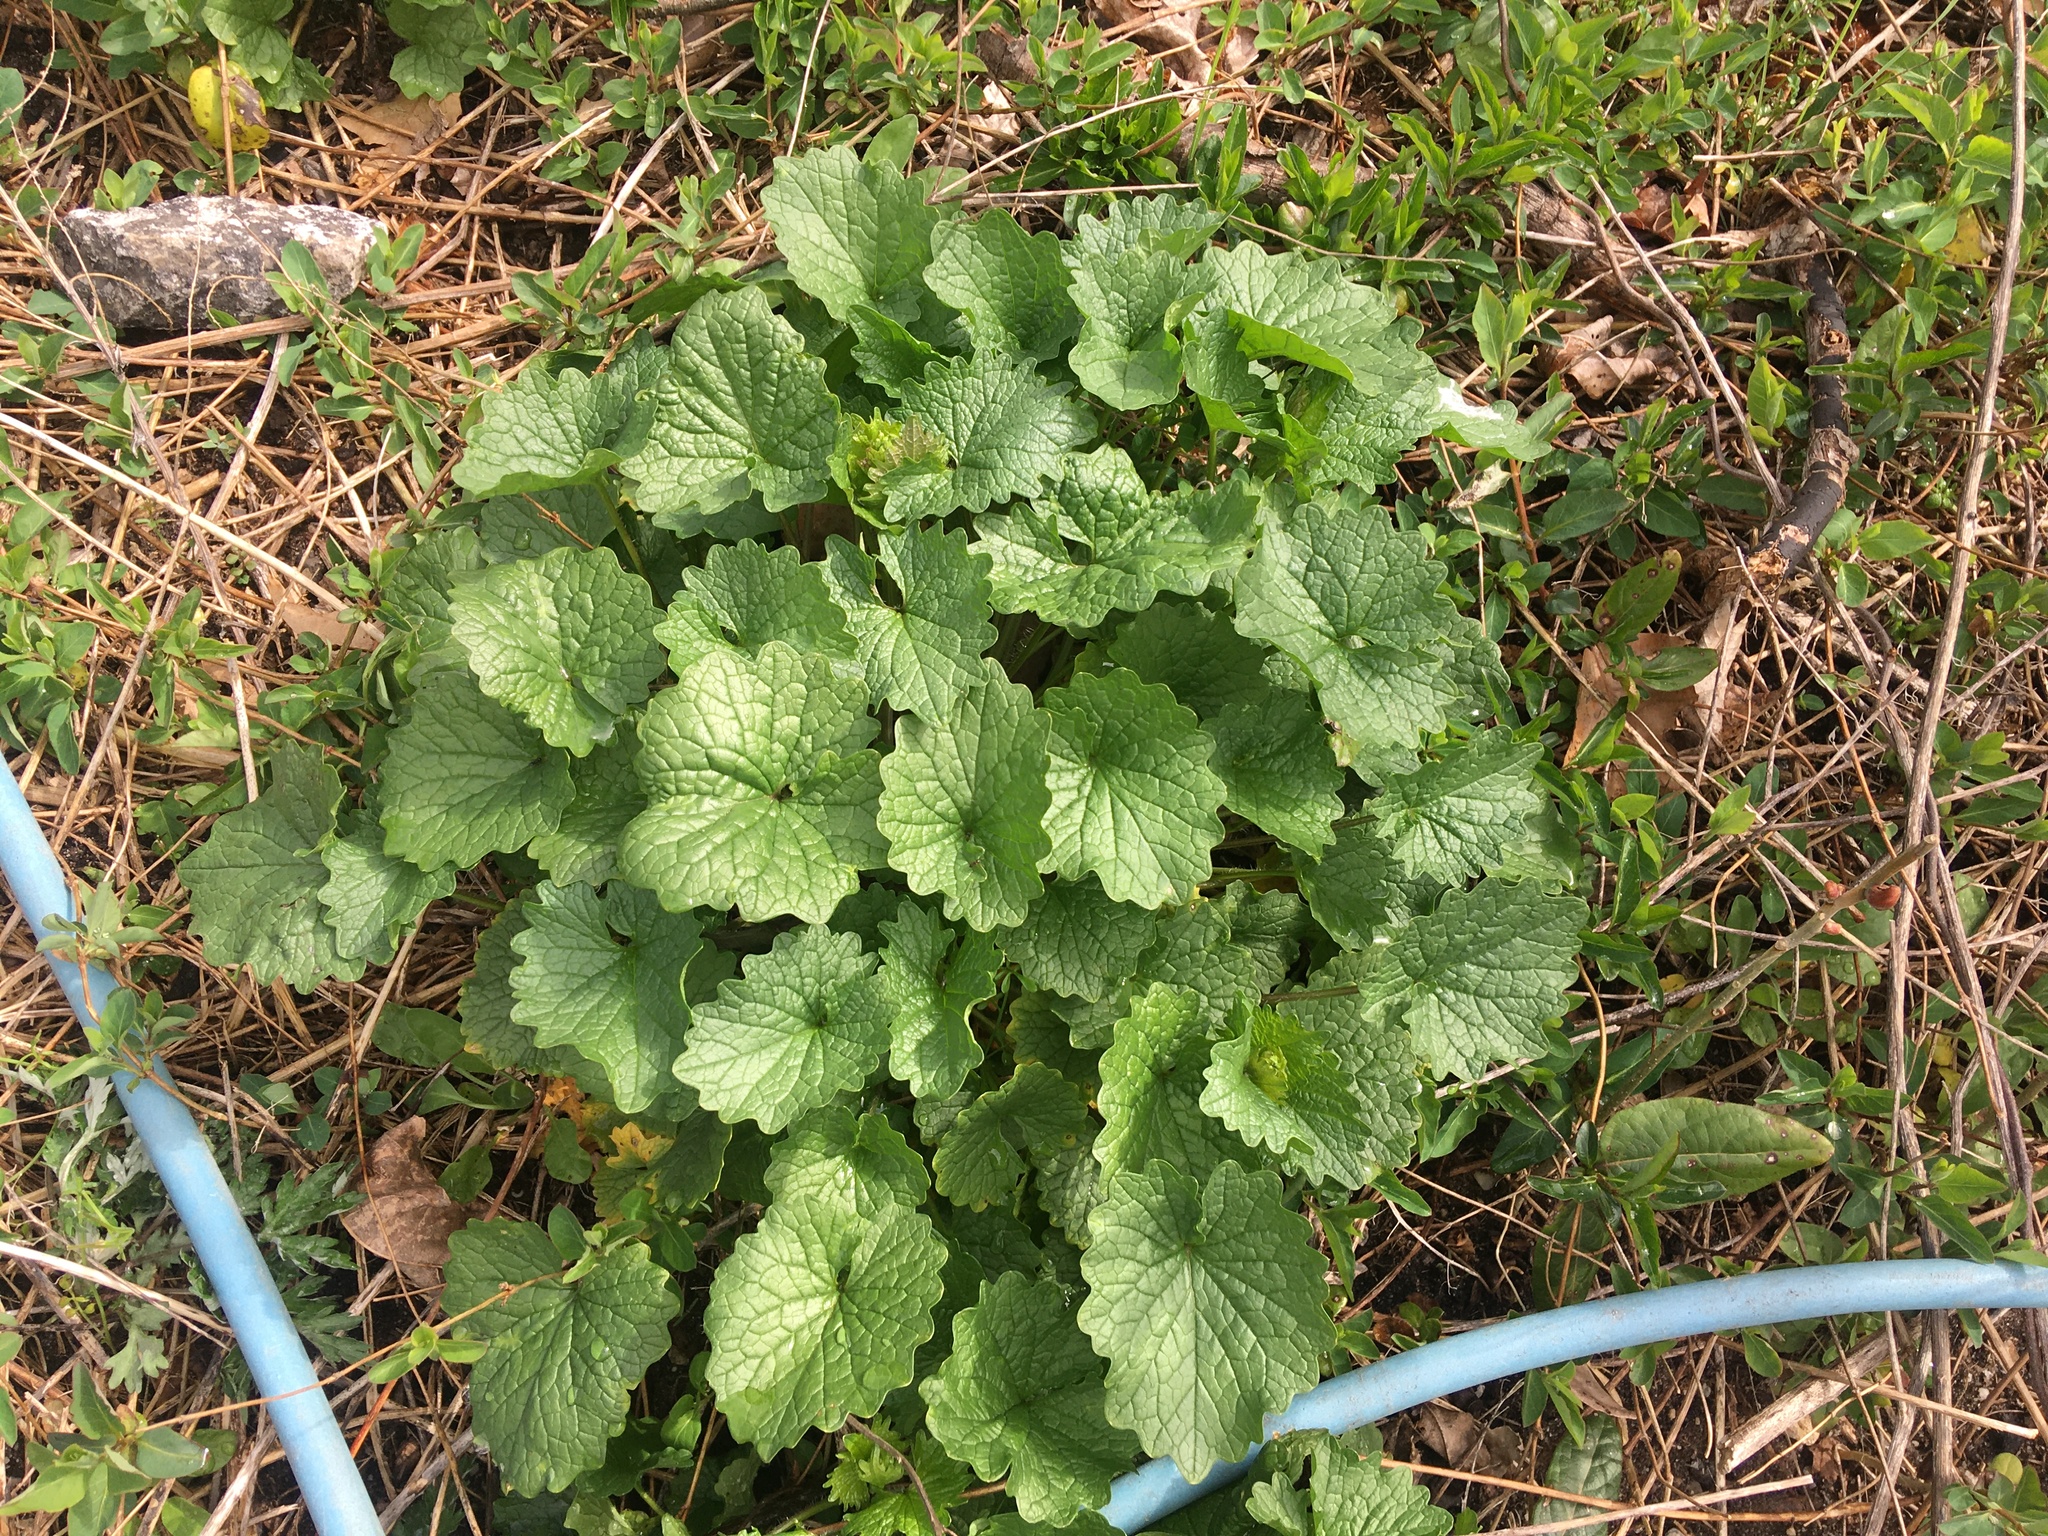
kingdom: Plantae
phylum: Tracheophyta
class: Magnoliopsida
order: Brassicales
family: Brassicaceae
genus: Alliaria
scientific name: Alliaria petiolata
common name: Garlic mustard
